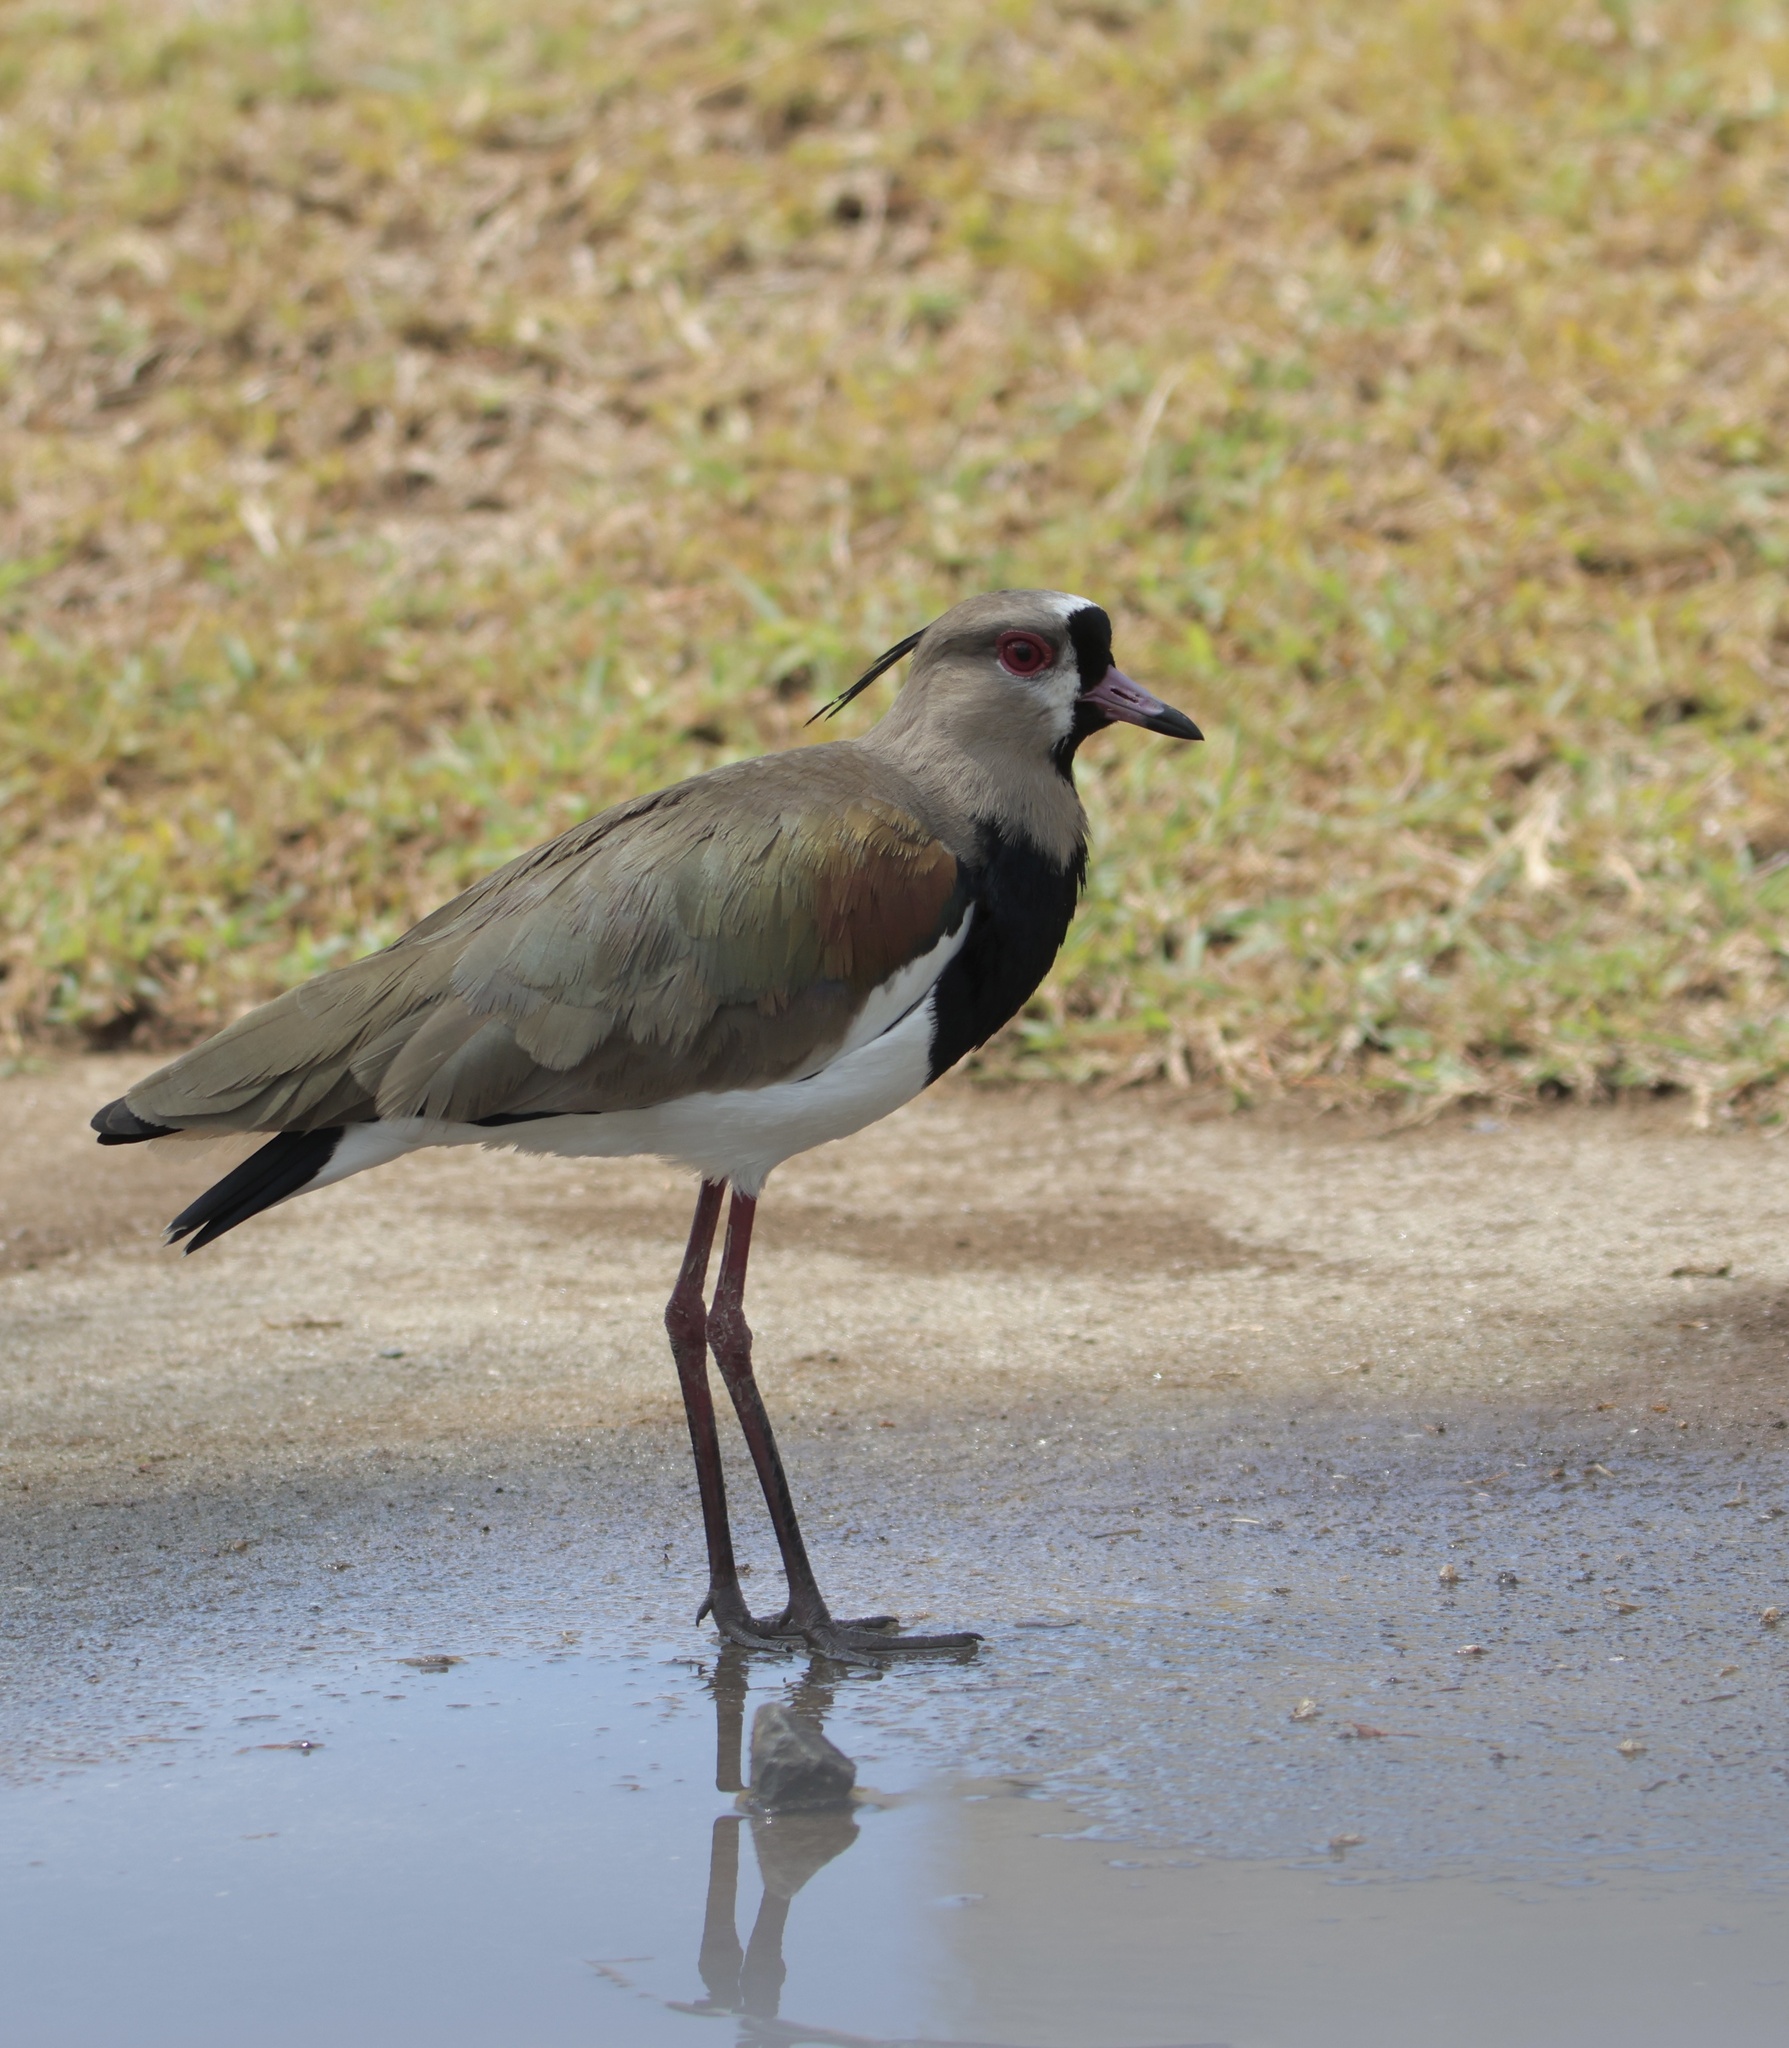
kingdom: Animalia
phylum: Chordata
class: Aves
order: Charadriiformes
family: Charadriidae
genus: Vanellus
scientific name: Vanellus chilensis
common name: Southern lapwing
